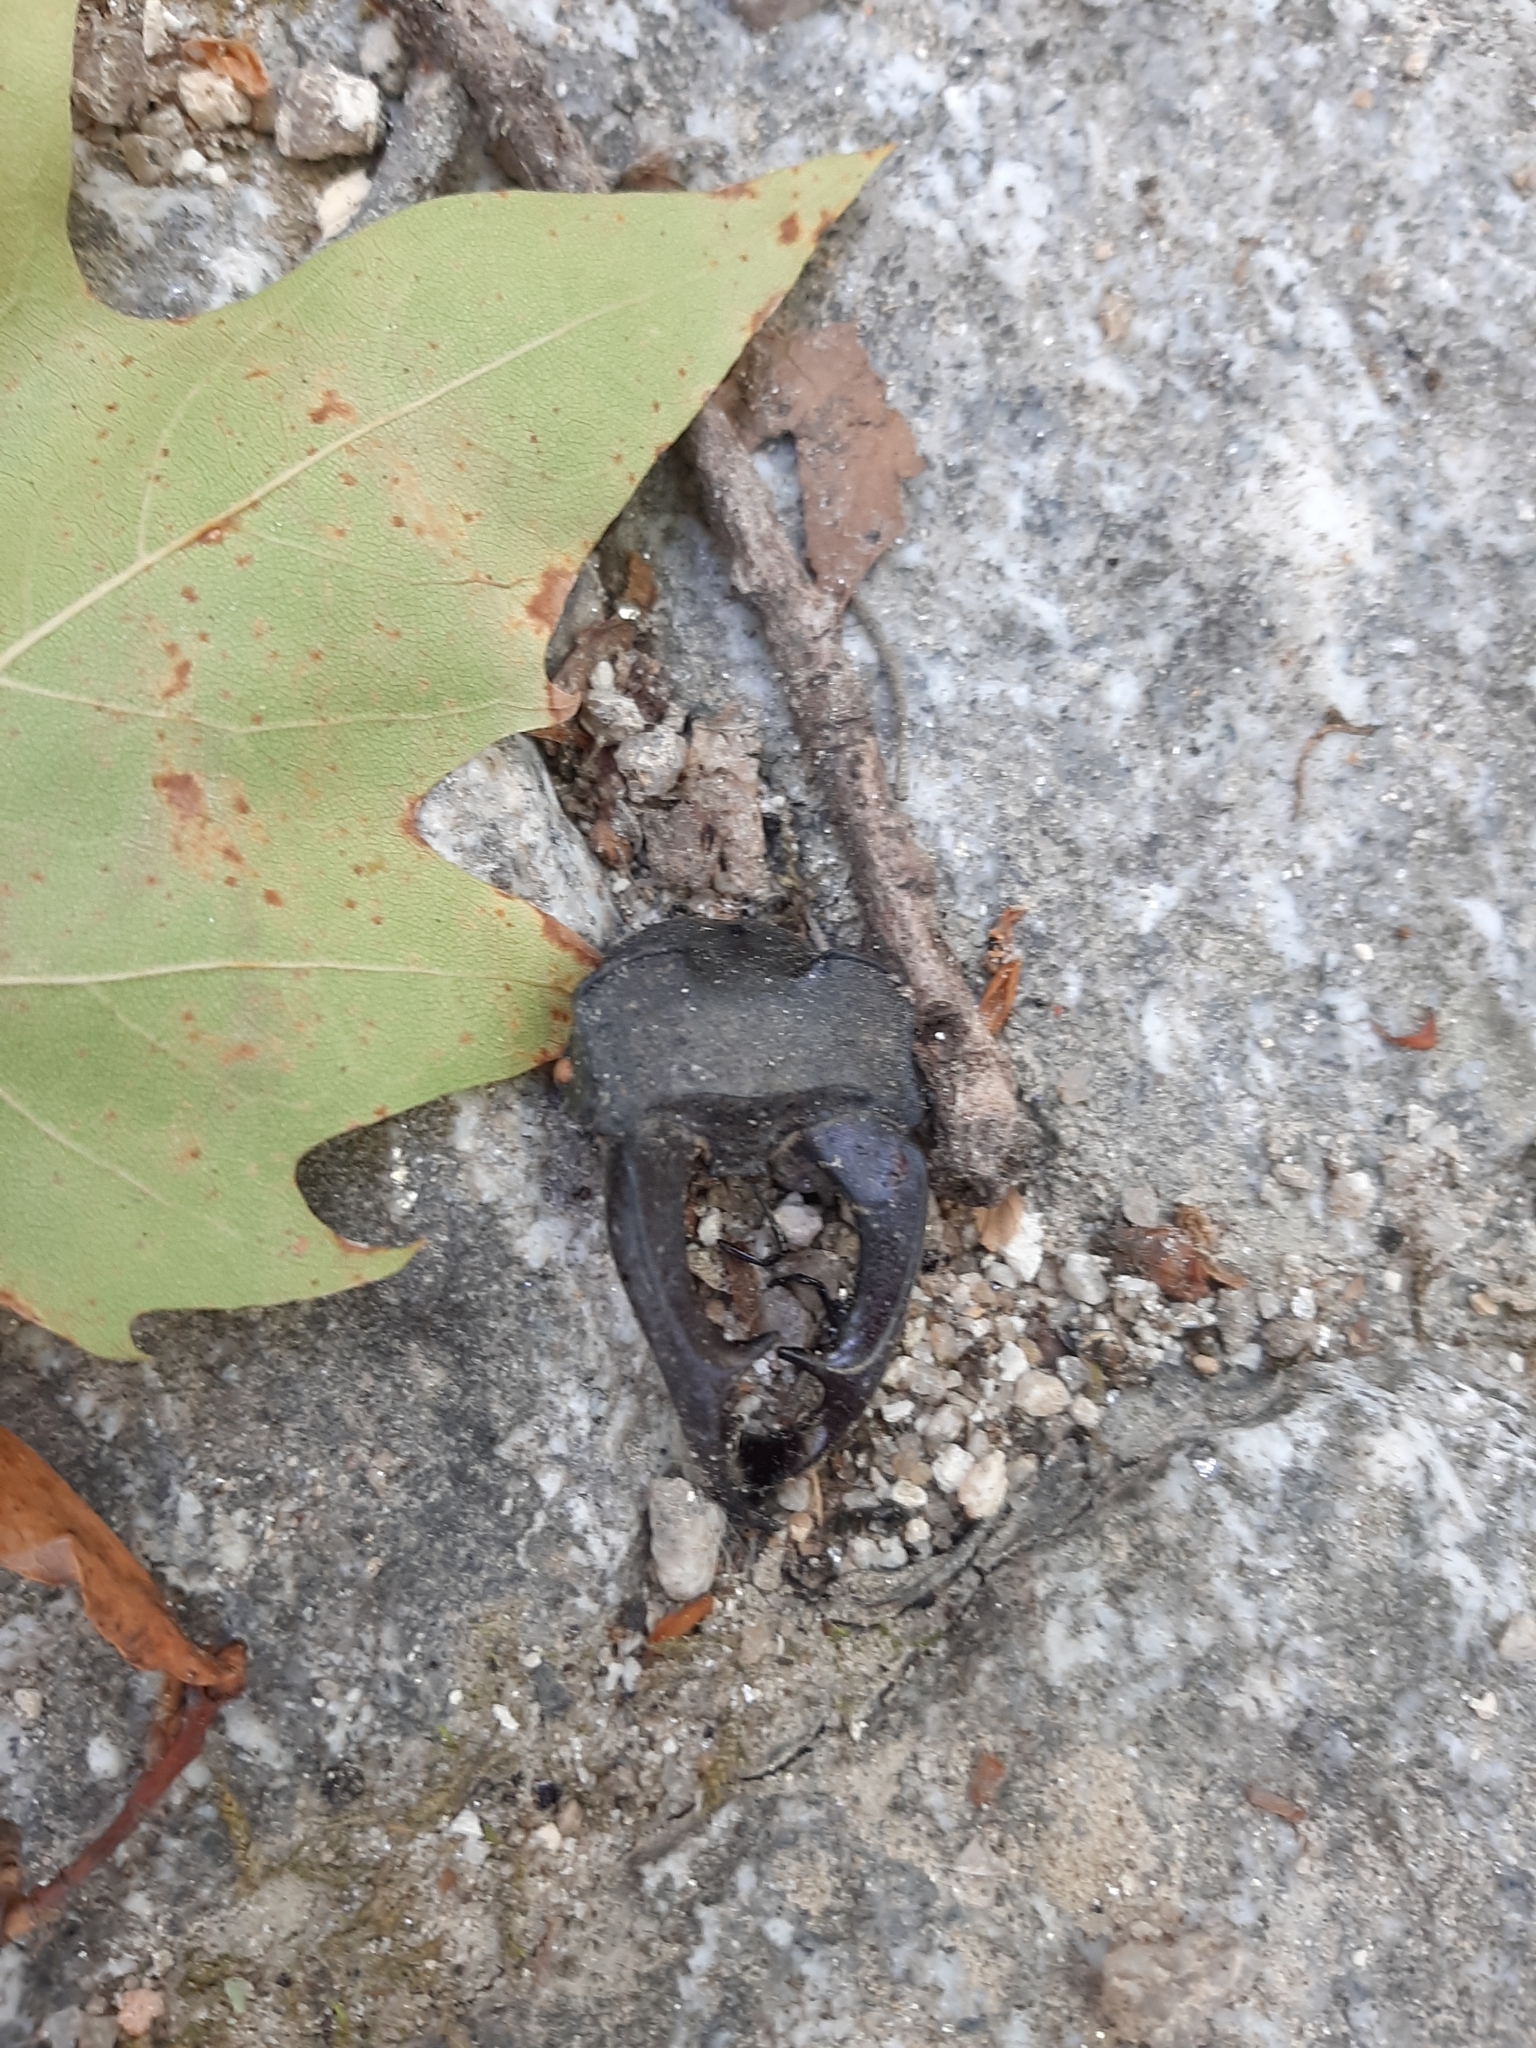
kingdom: Animalia
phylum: Arthropoda
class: Insecta
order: Coleoptera
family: Lucanidae
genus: Lucanus
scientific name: Lucanus cervus
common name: Stag beetle
